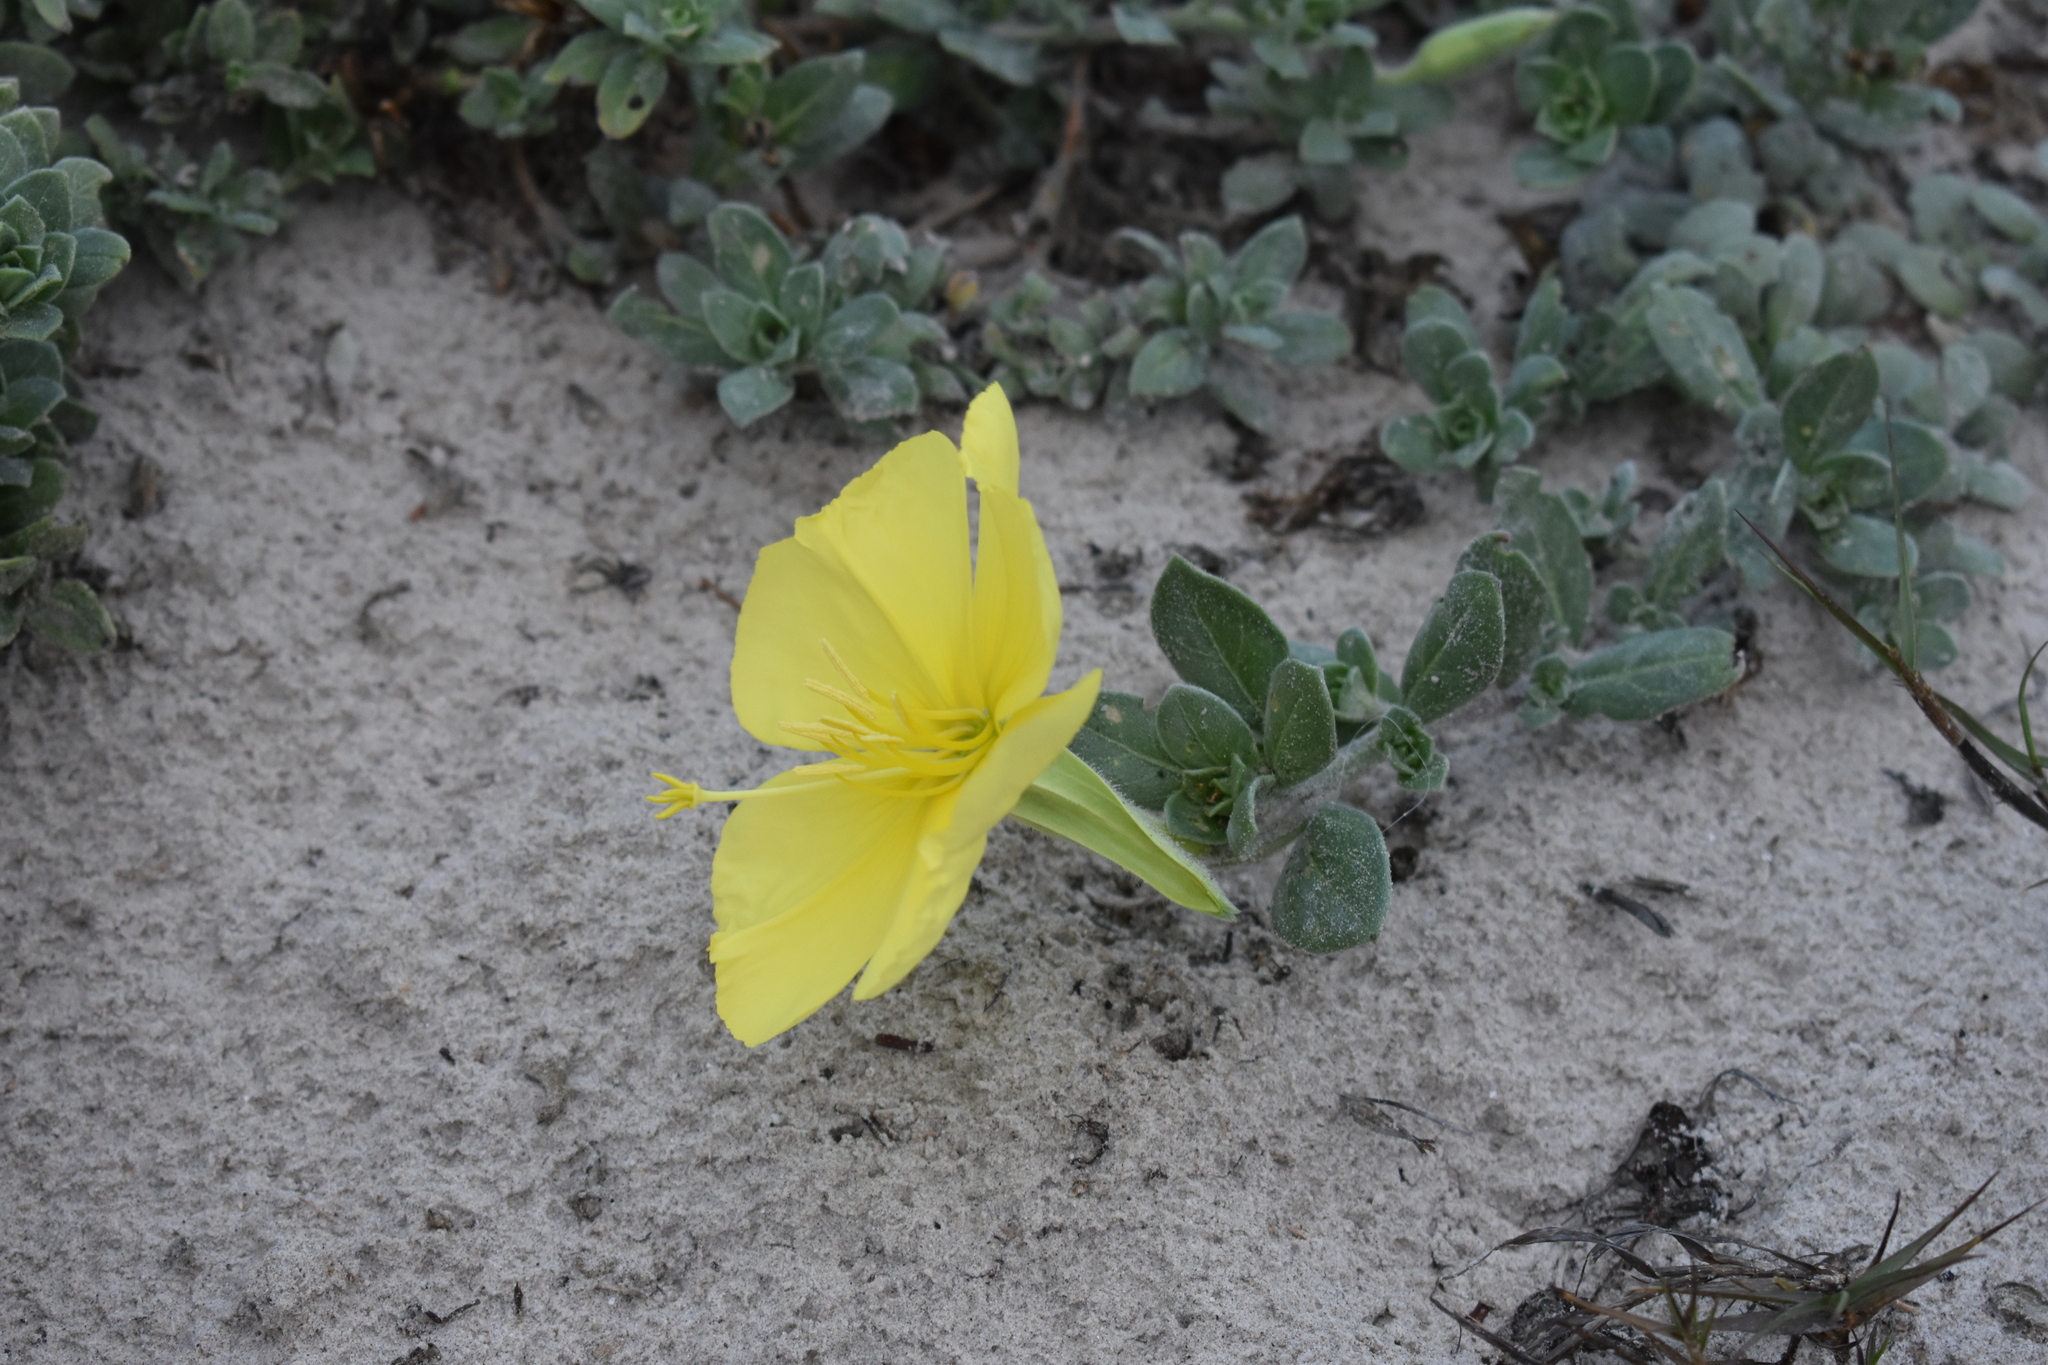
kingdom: Plantae
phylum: Tracheophyta
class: Magnoliopsida
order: Myrtales
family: Onagraceae
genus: Oenothera
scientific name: Oenothera drummondii
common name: Beach evening-primrose
